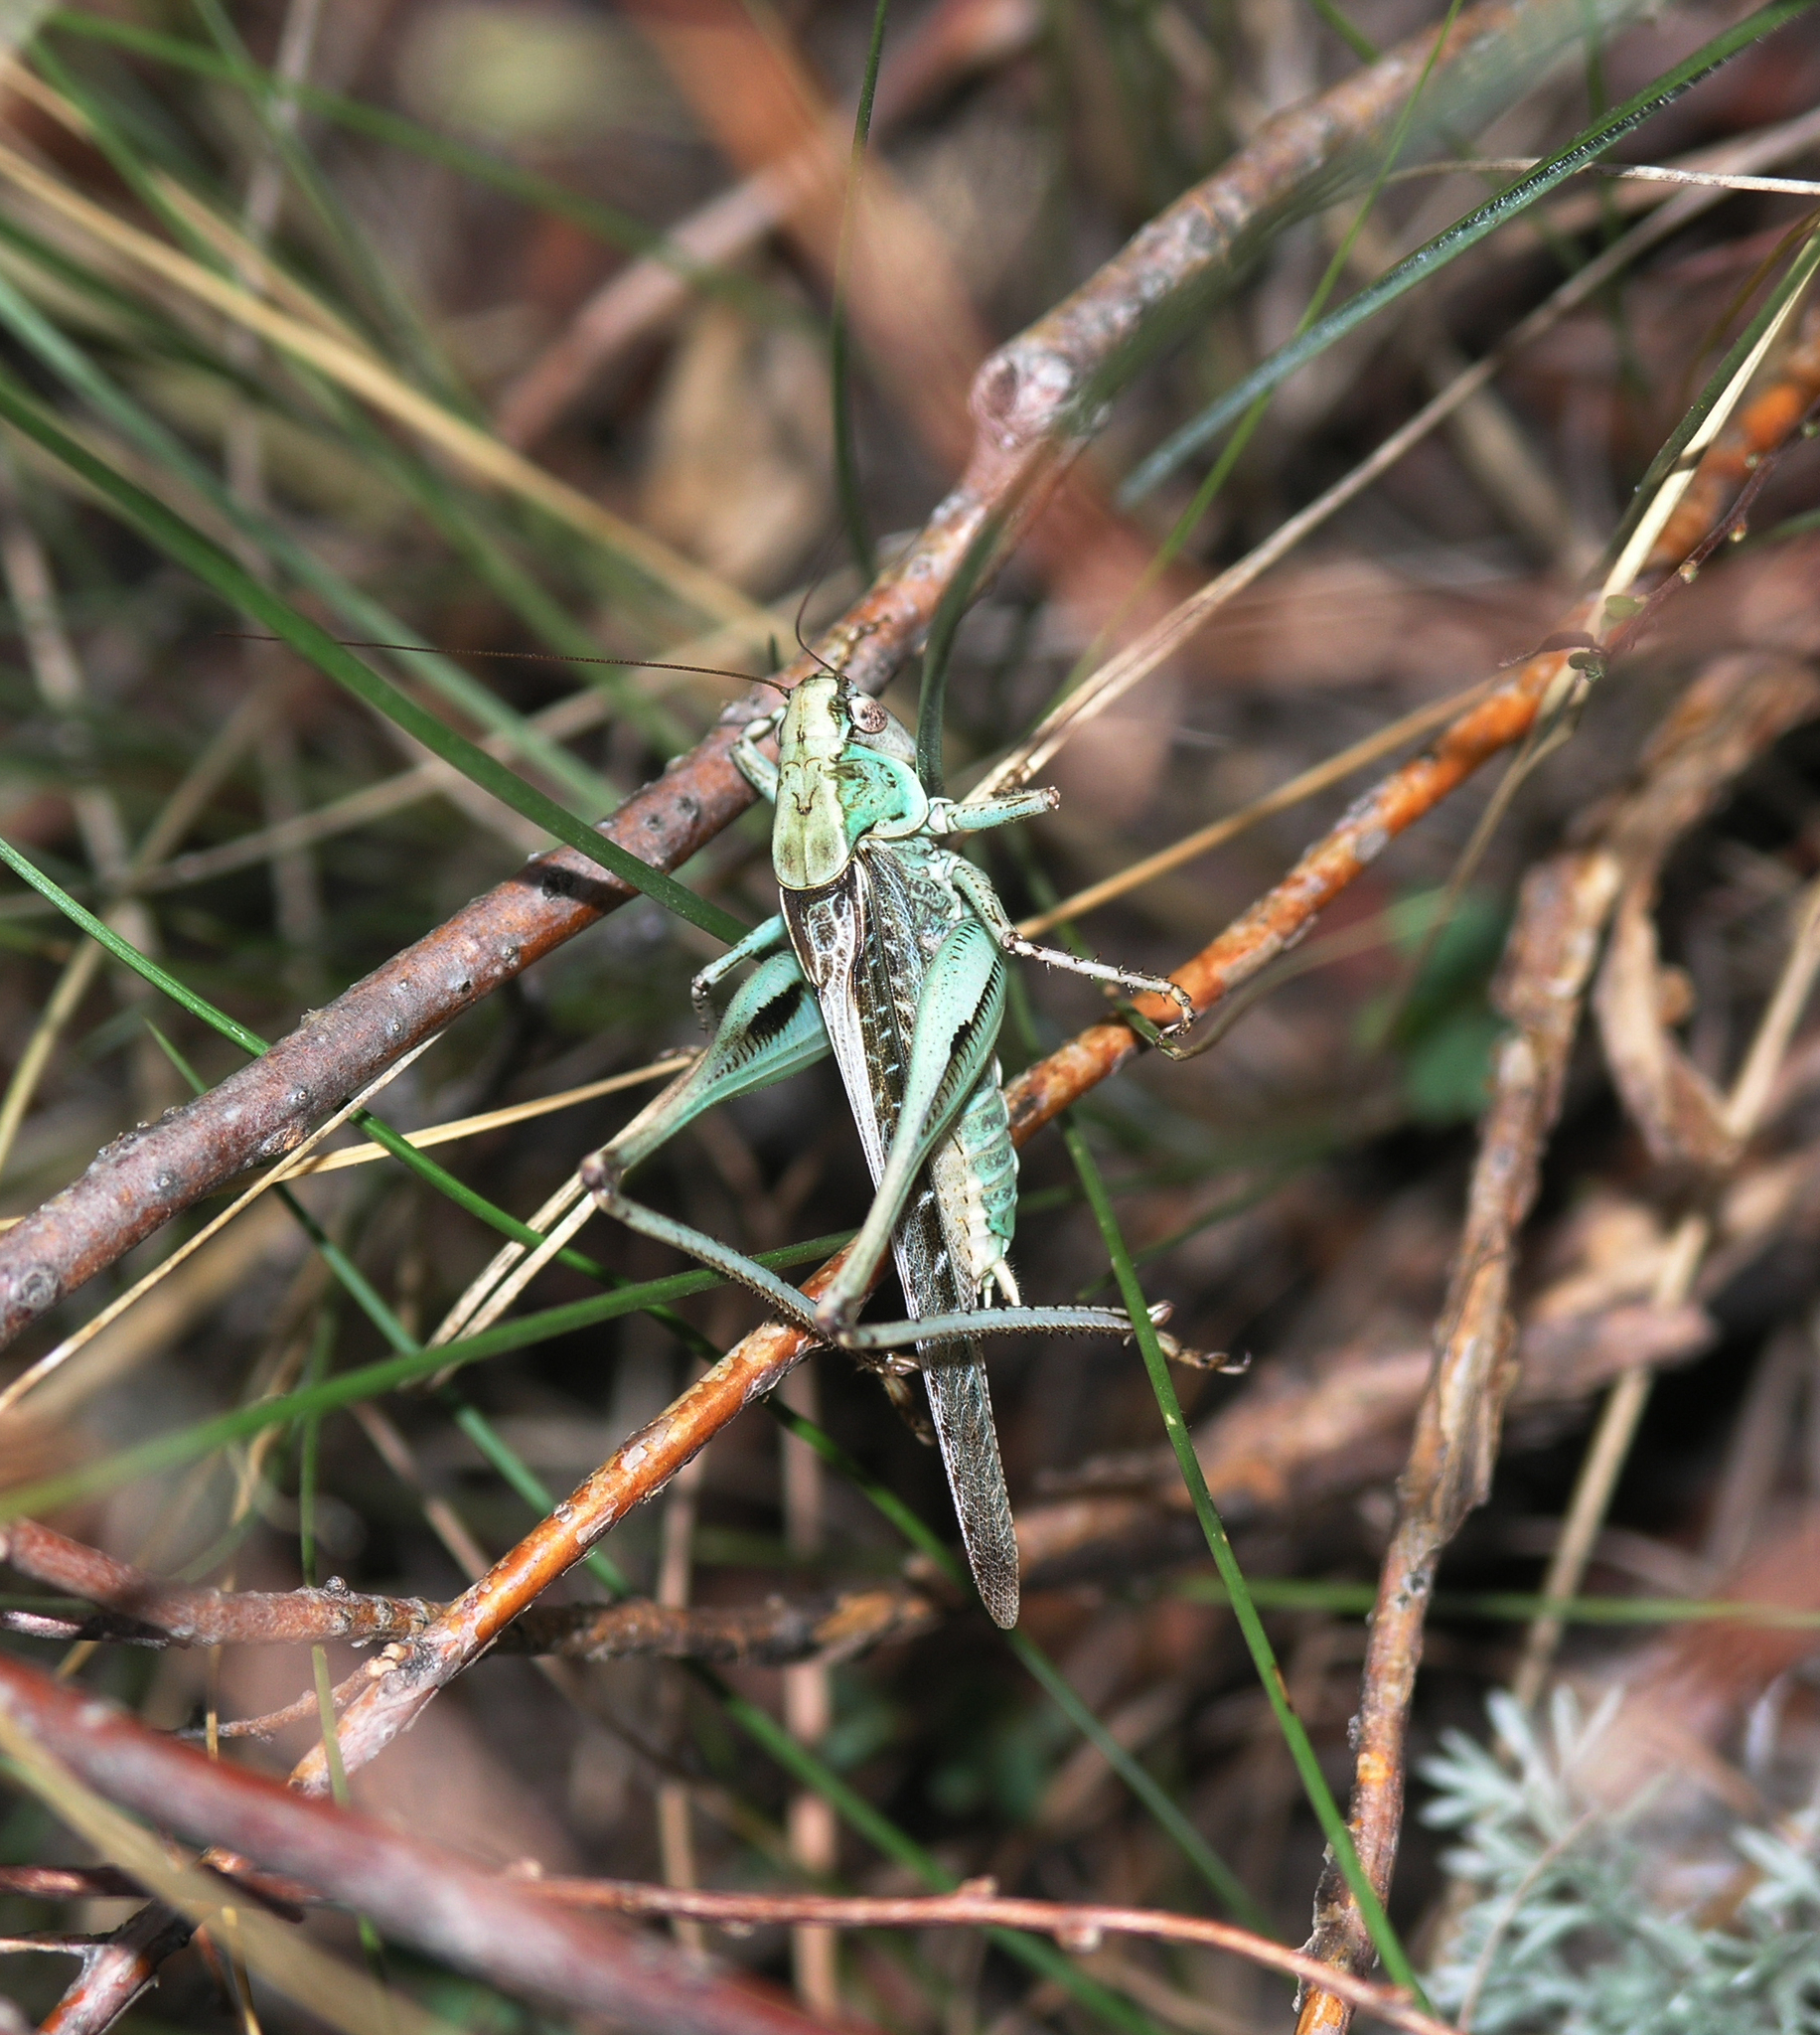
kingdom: Animalia
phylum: Arthropoda
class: Insecta
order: Orthoptera
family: Tettigoniidae
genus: Platycleis
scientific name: Platycleis intermedia
